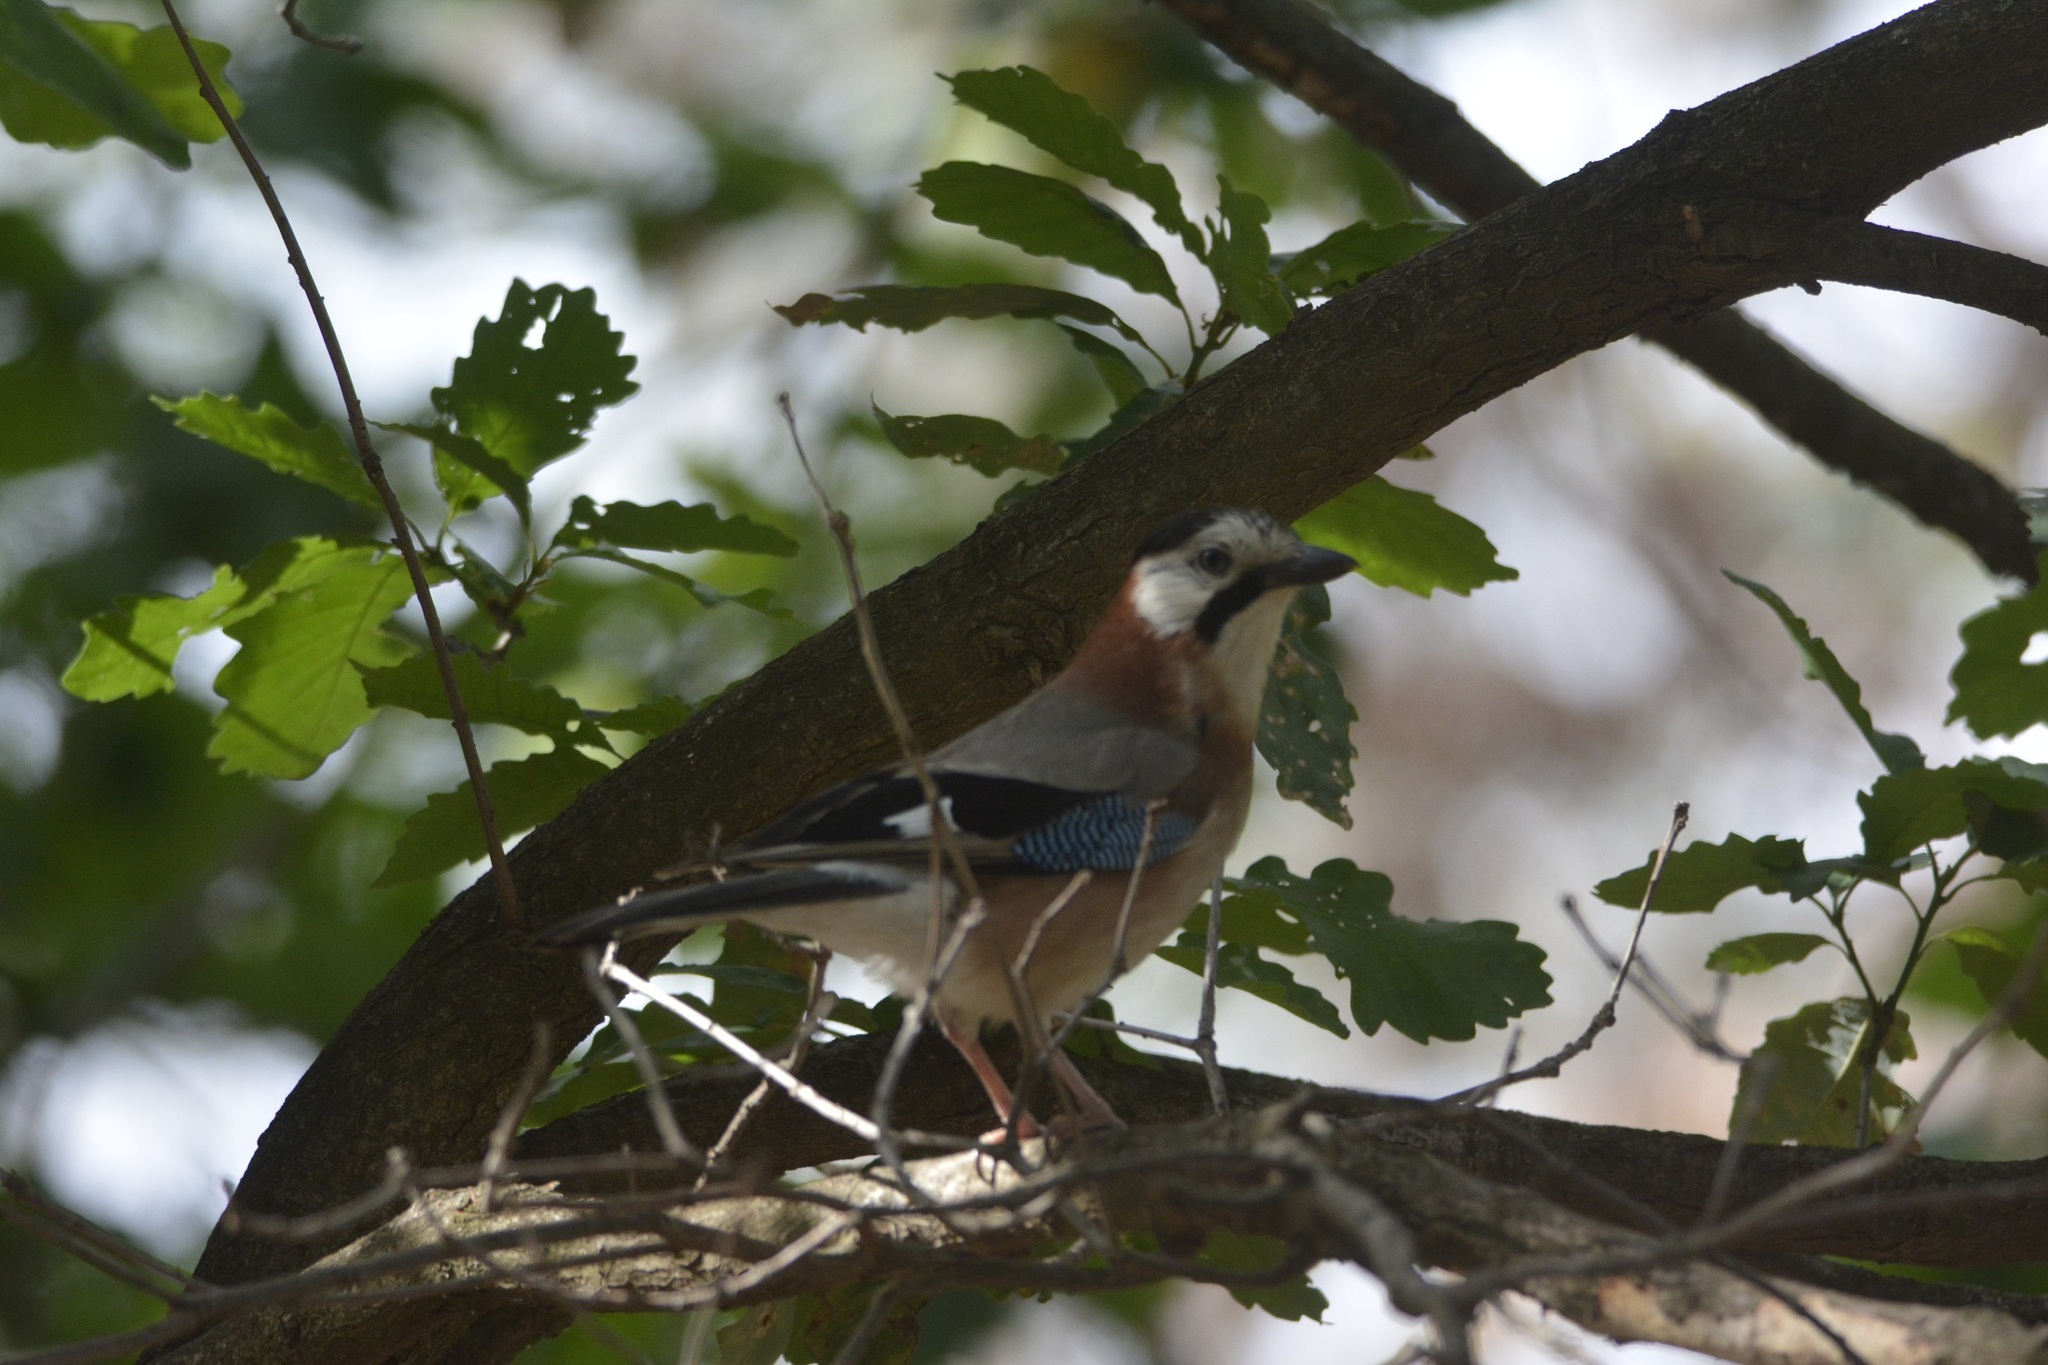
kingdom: Animalia
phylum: Chordata
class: Aves
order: Passeriformes
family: Corvidae
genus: Garrulus
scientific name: Garrulus glandarius
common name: Eurasian jay
